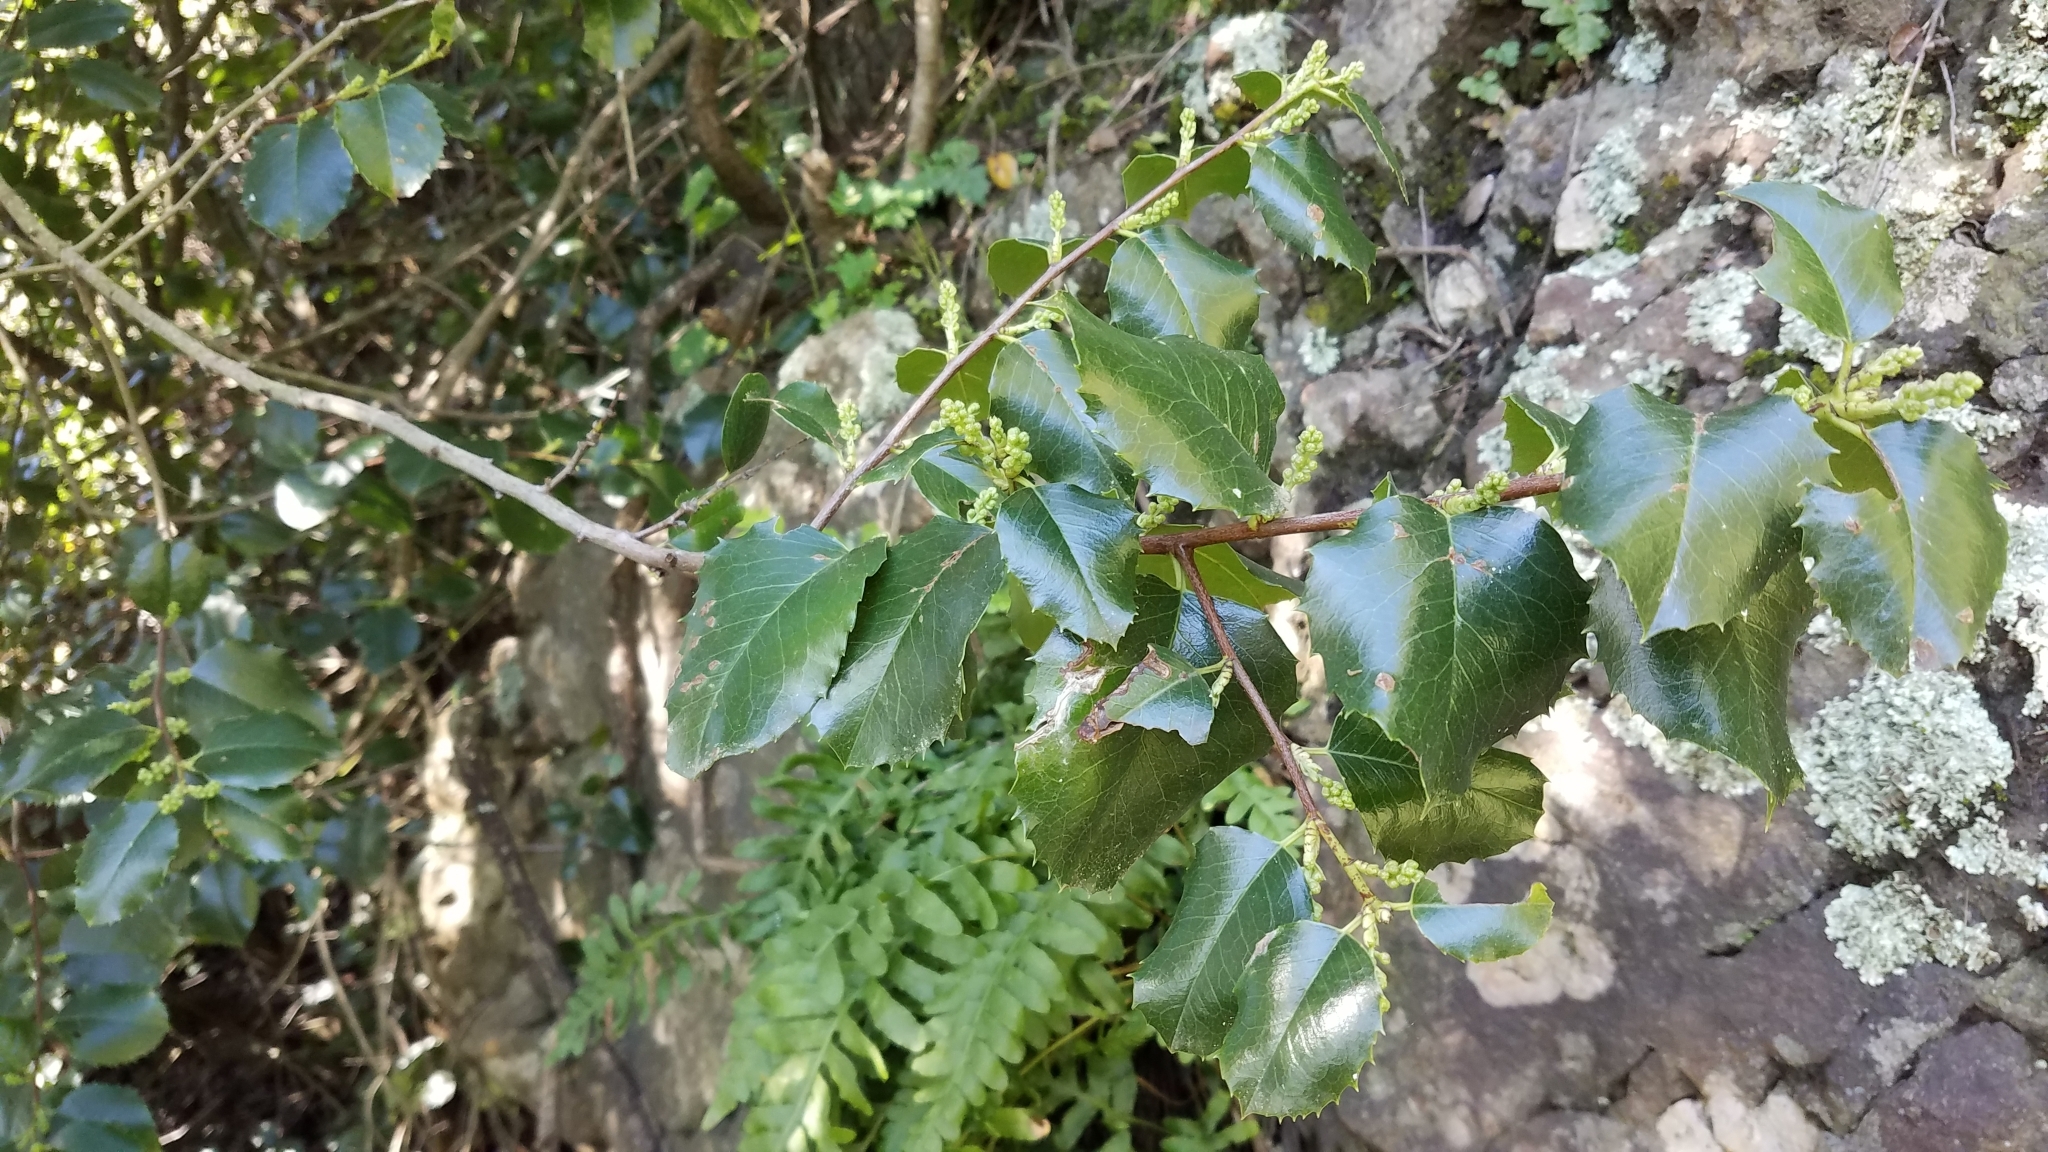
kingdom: Plantae
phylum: Tracheophyta
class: Magnoliopsida
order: Rosales
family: Rosaceae
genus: Prunus
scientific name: Prunus ilicifolia
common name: Hollyleaf cherry
